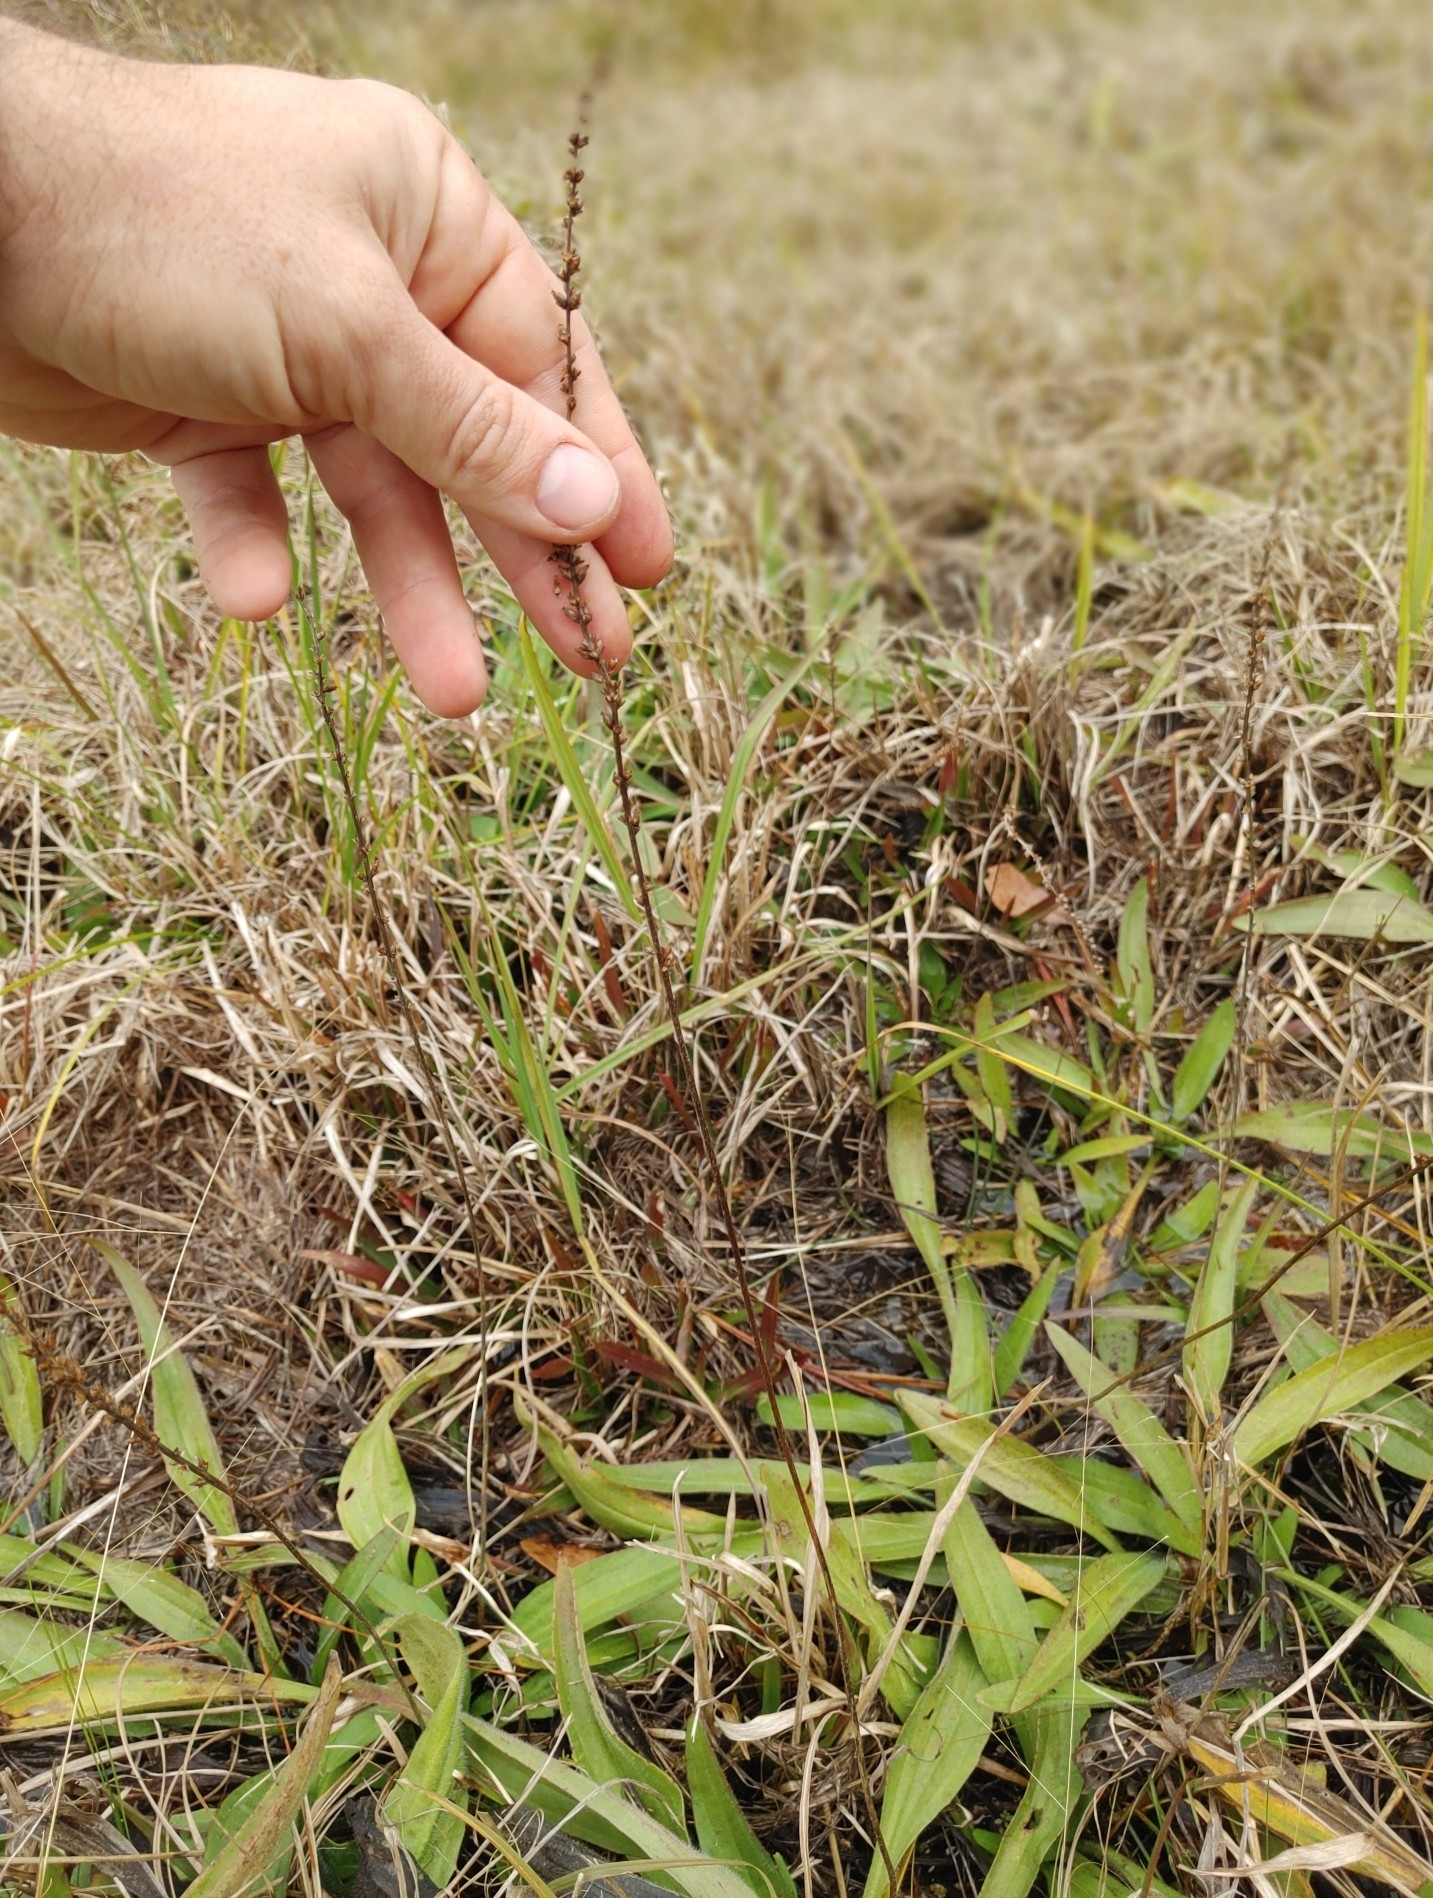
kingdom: Plantae
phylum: Tracheophyta
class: Magnoliopsida
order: Lamiales
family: Plantaginaceae
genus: Plantago
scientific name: Plantago sparsiflora
